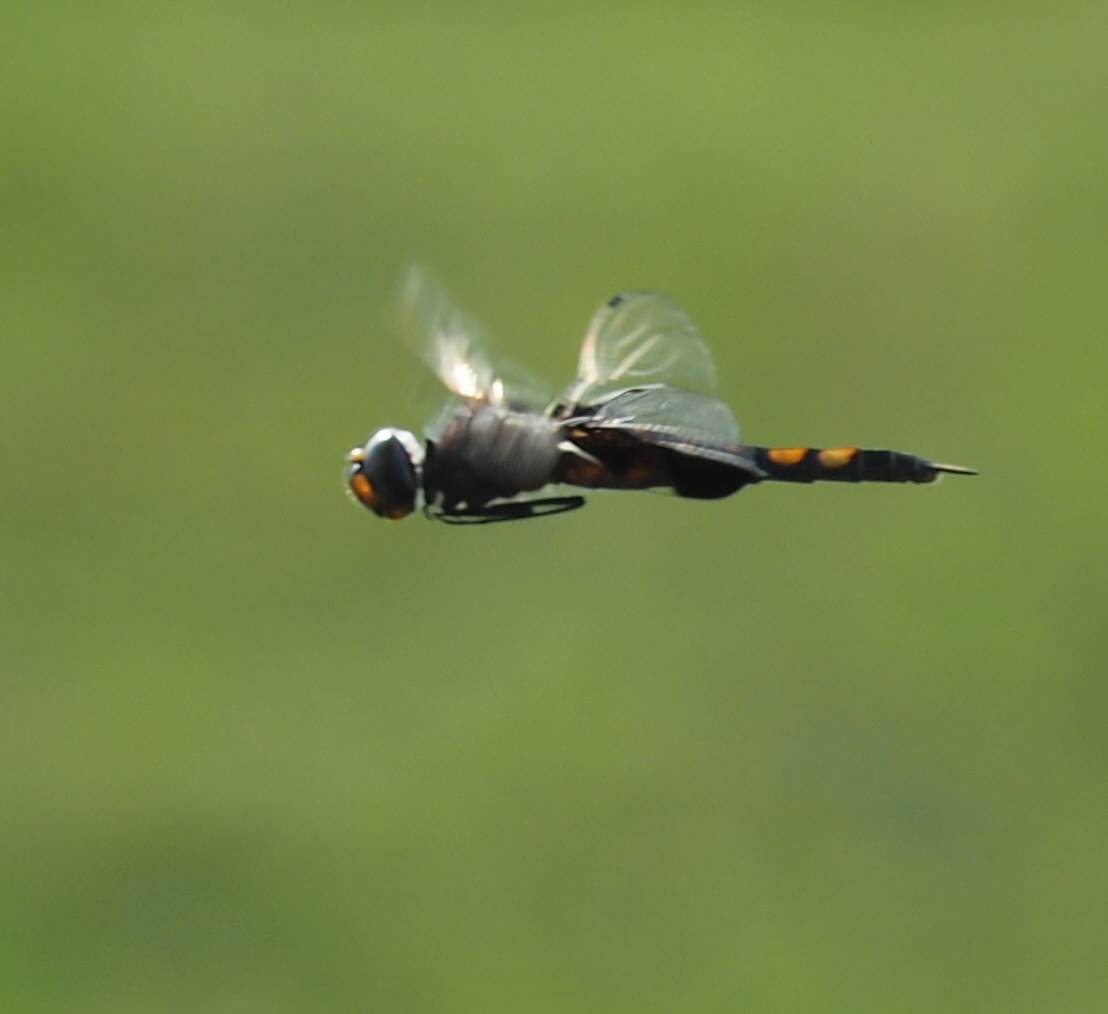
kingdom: Animalia
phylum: Arthropoda
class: Insecta
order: Odonata
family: Libellulidae
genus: Tramea
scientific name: Tramea lacerata
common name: Black saddlebags
